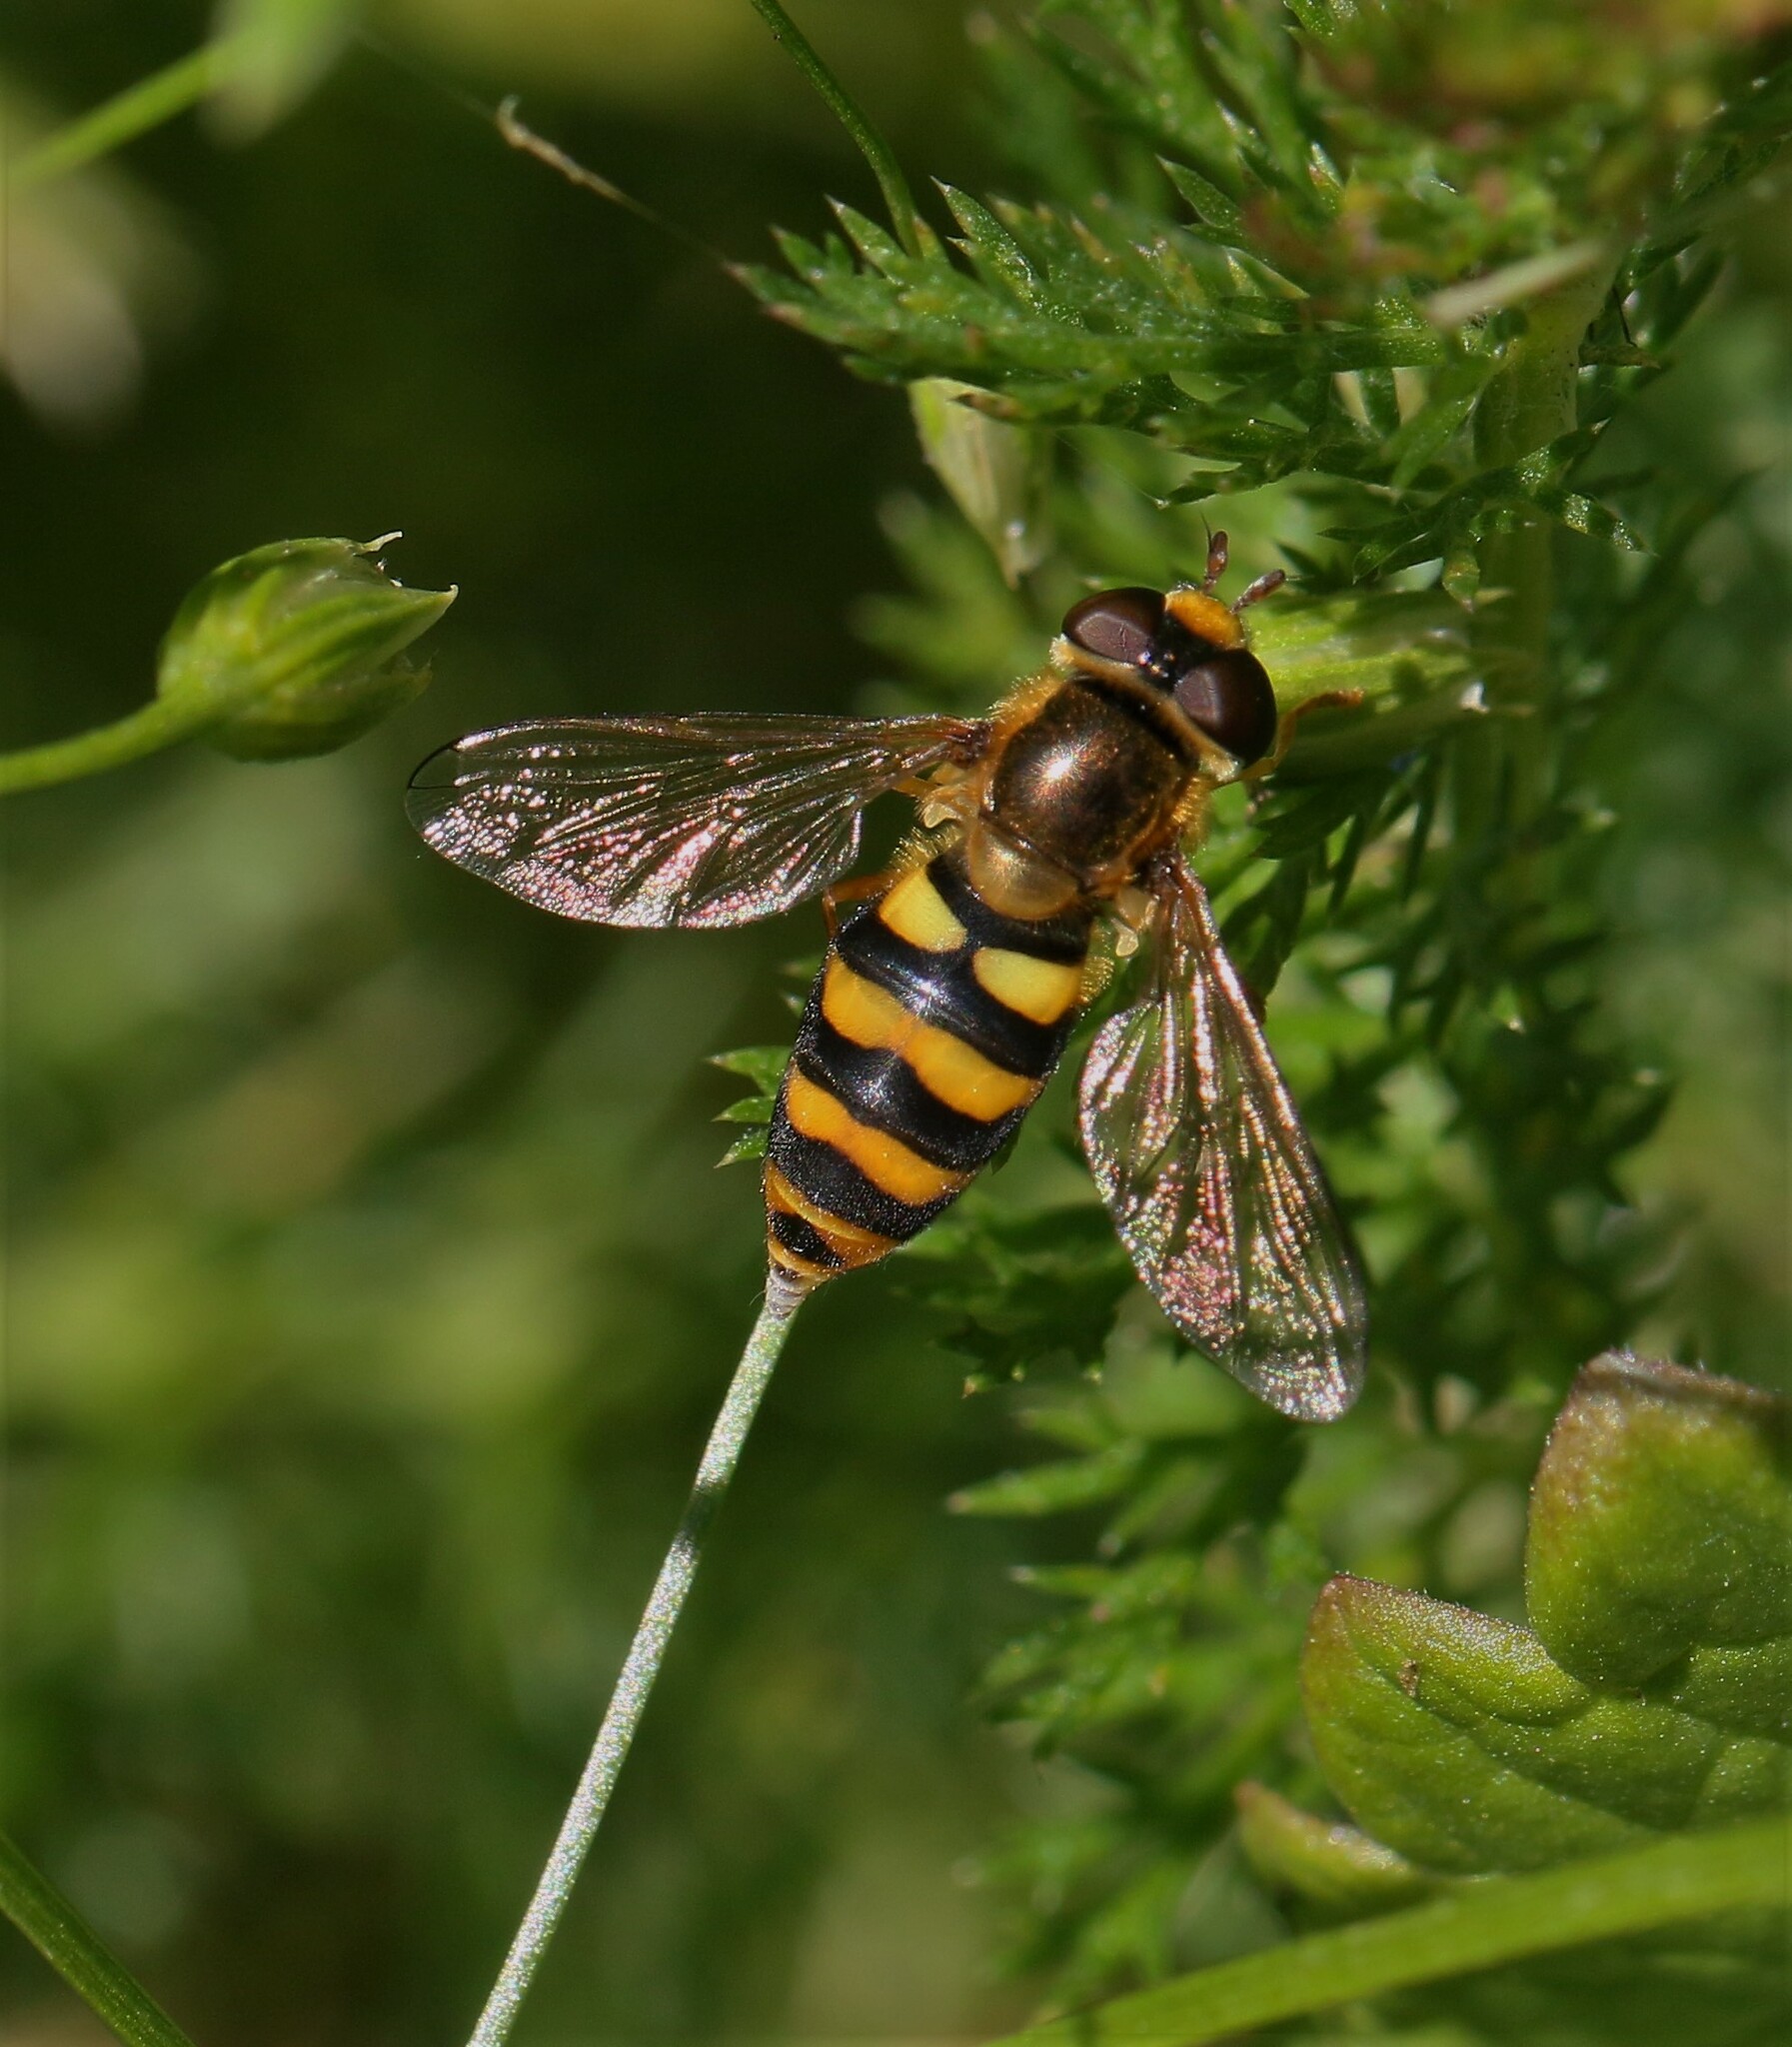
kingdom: Animalia
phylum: Arthropoda
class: Insecta
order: Diptera
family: Syrphidae
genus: Eupeodes
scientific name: Eupeodes latifasciatus
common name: Variable aphideater
